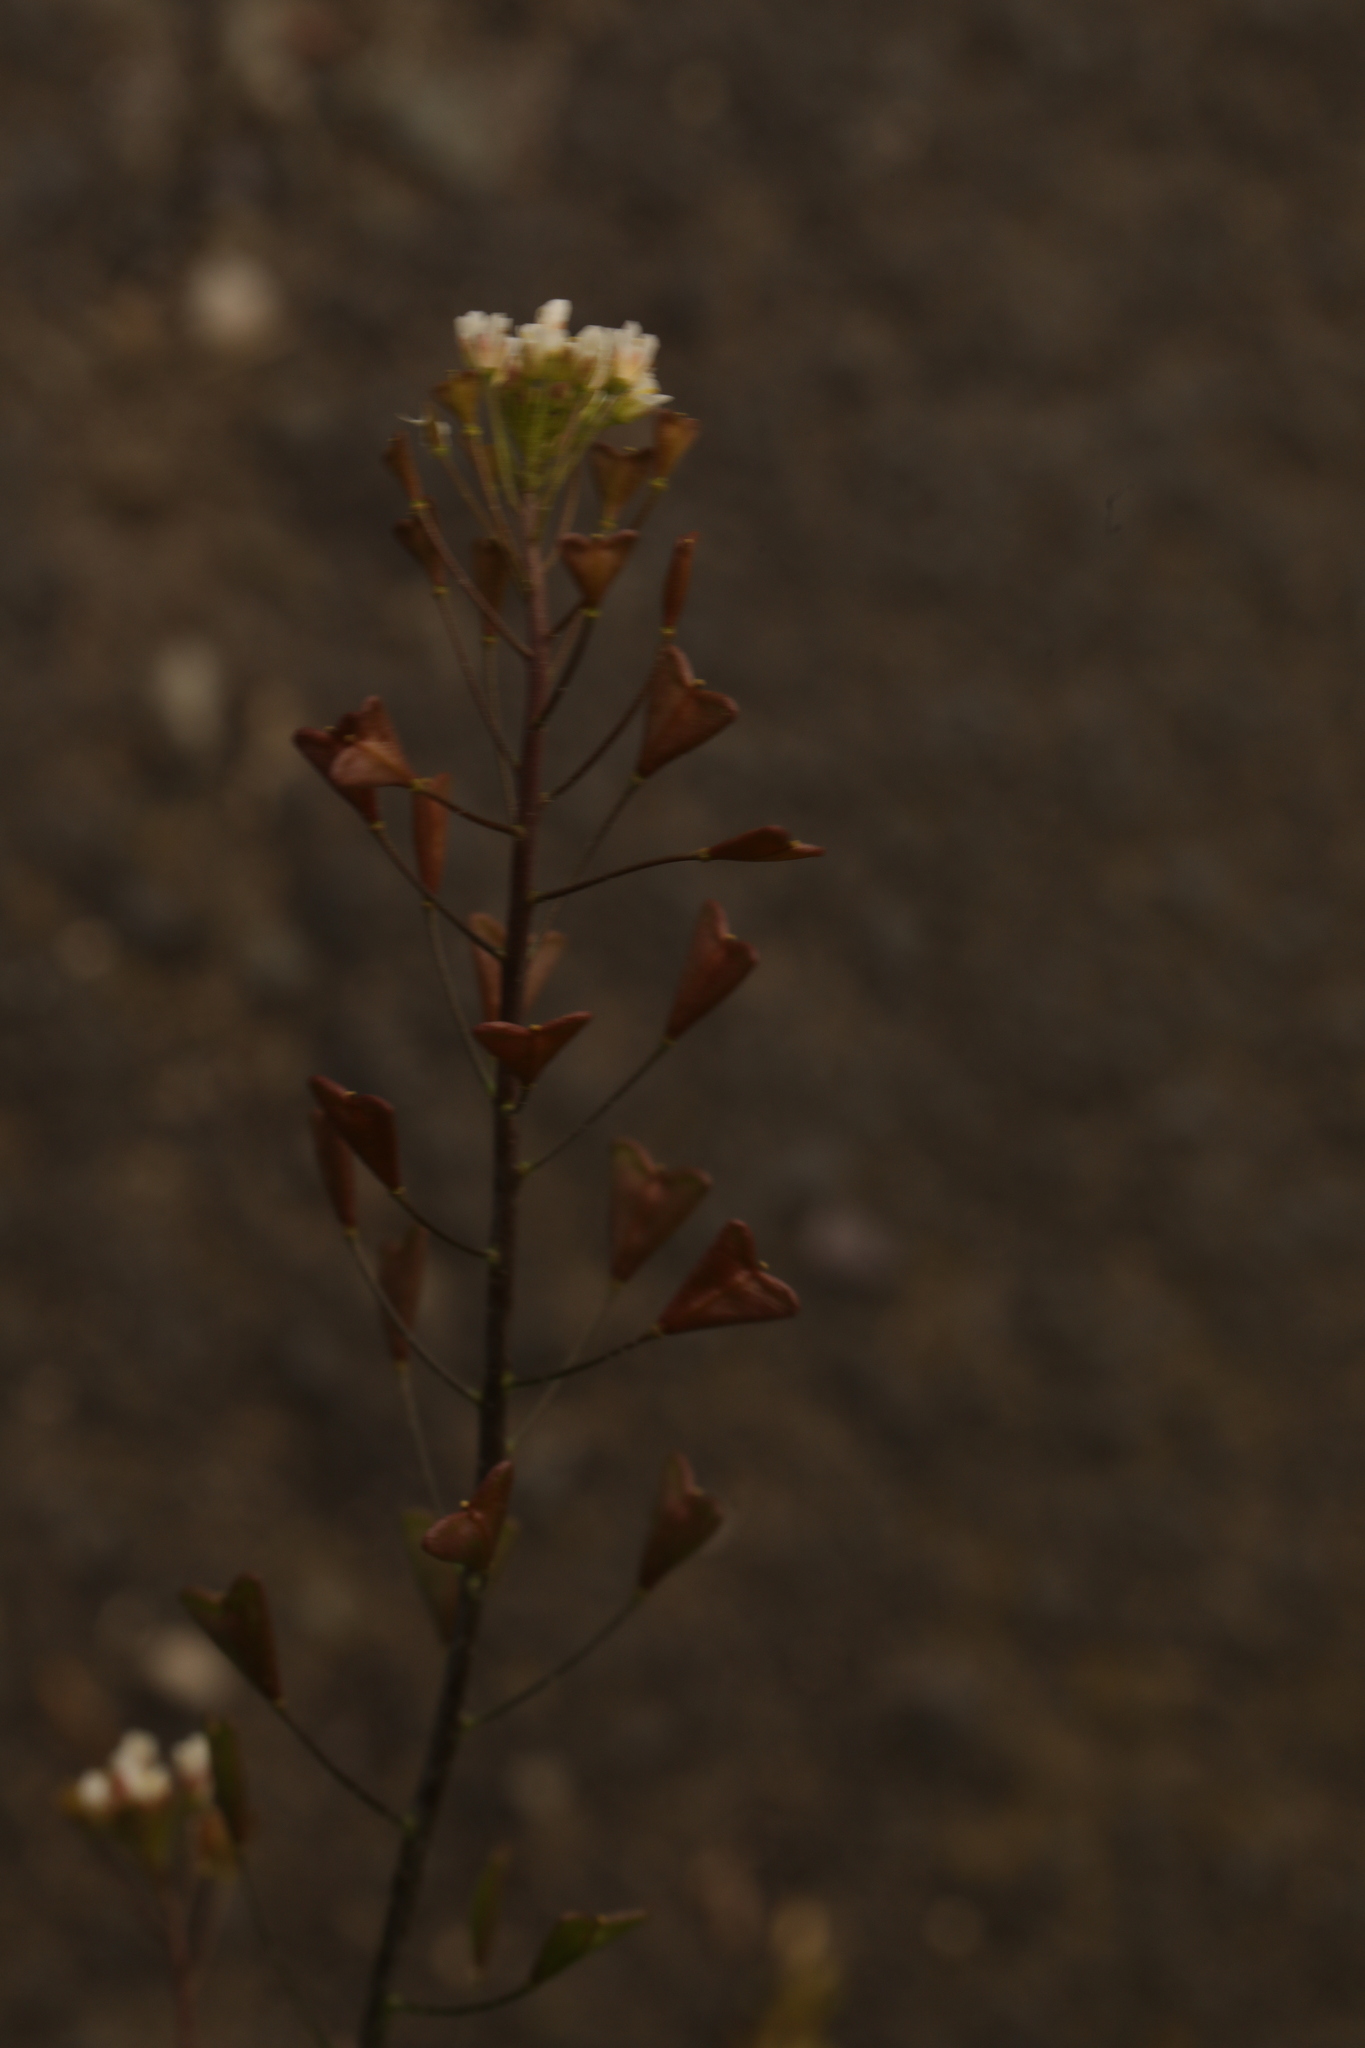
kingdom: Plantae
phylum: Tracheophyta
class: Magnoliopsida
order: Brassicales
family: Brassicaceae
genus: Capsella
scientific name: Capsella bursa-pastoris
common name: Shepherd's purse
